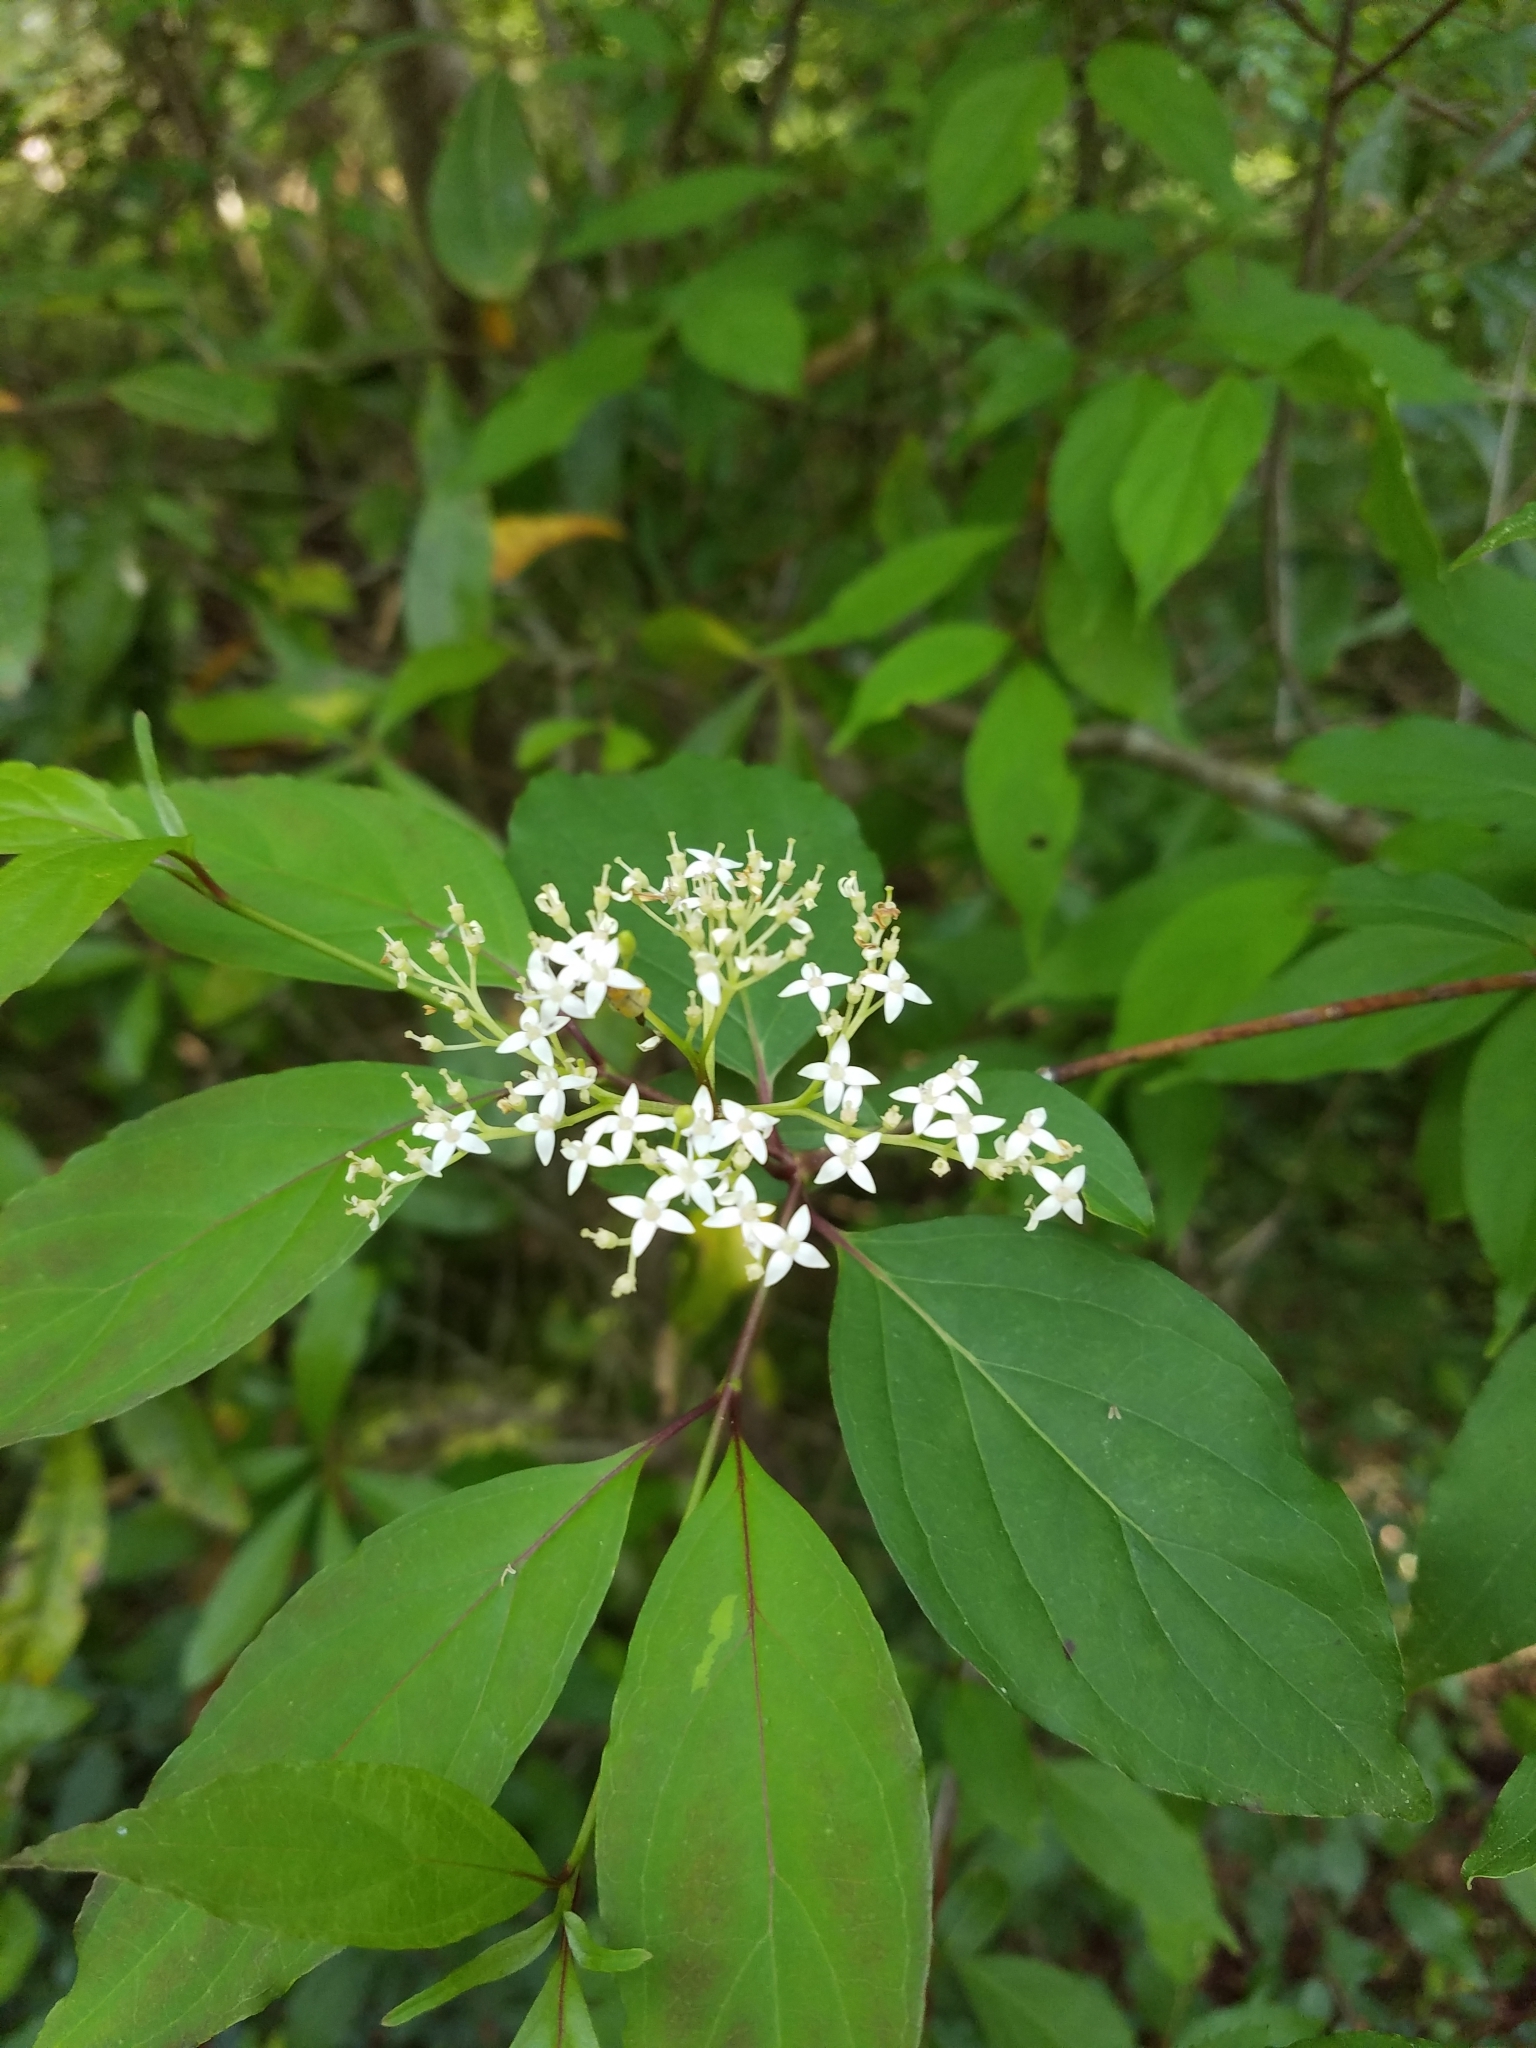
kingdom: Plantae
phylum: Tracheophyta
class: Magnoliopsida
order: Cornales
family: Cornaceae
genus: Cornus
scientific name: Cornus foemina
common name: Swamp dogwood
